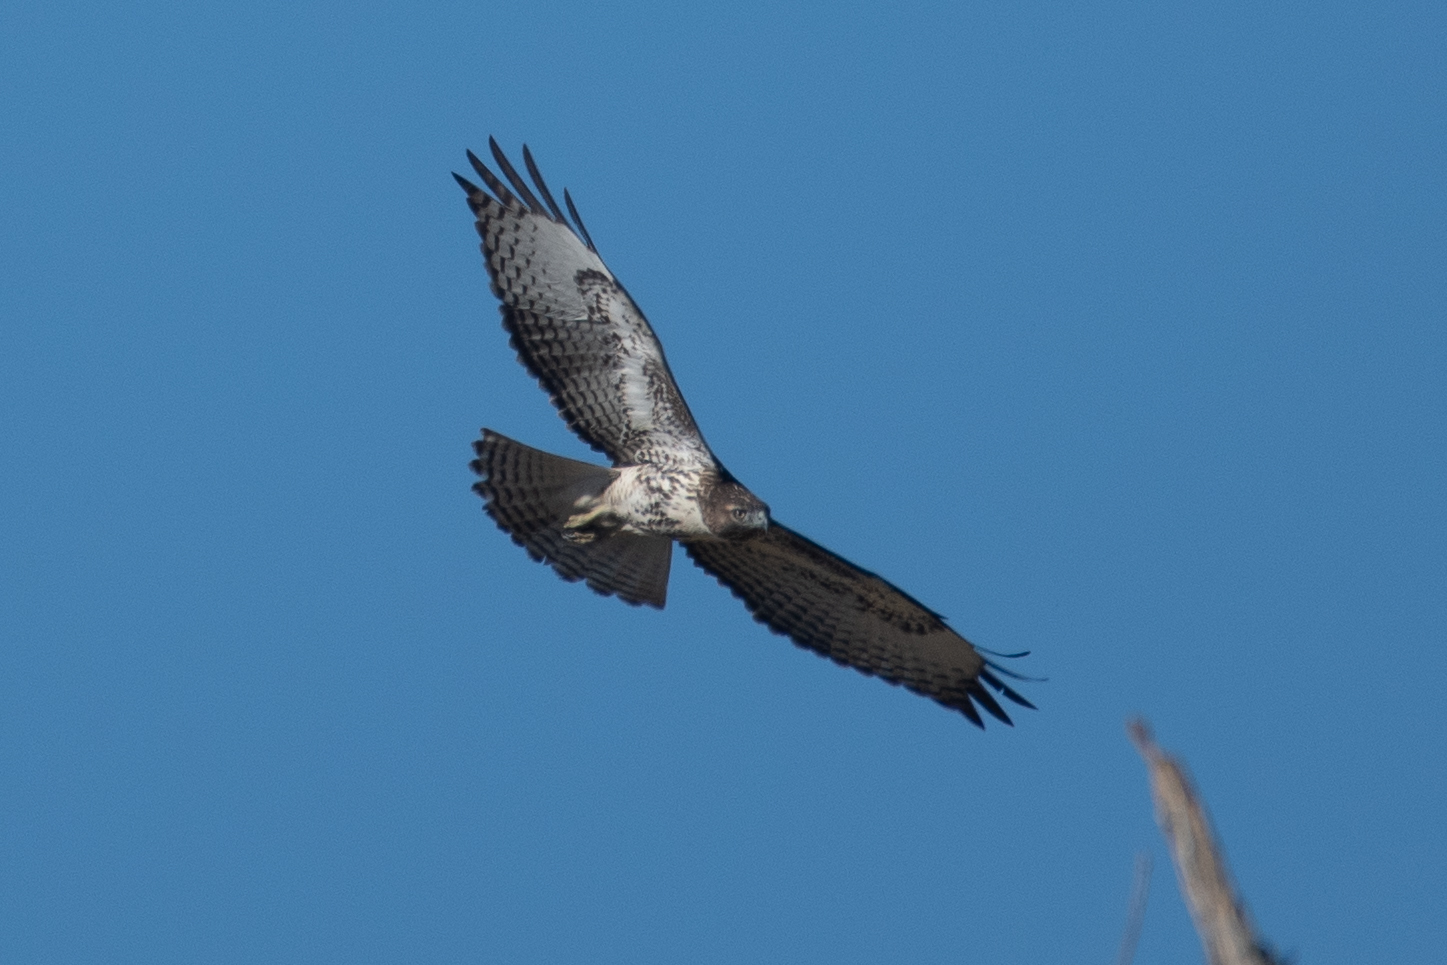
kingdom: Animalia
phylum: Chordata
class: Aves
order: Accipitriformes
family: Accipitridae
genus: Buteo
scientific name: Buteo jamaicensis
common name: Red-tailed hawk
